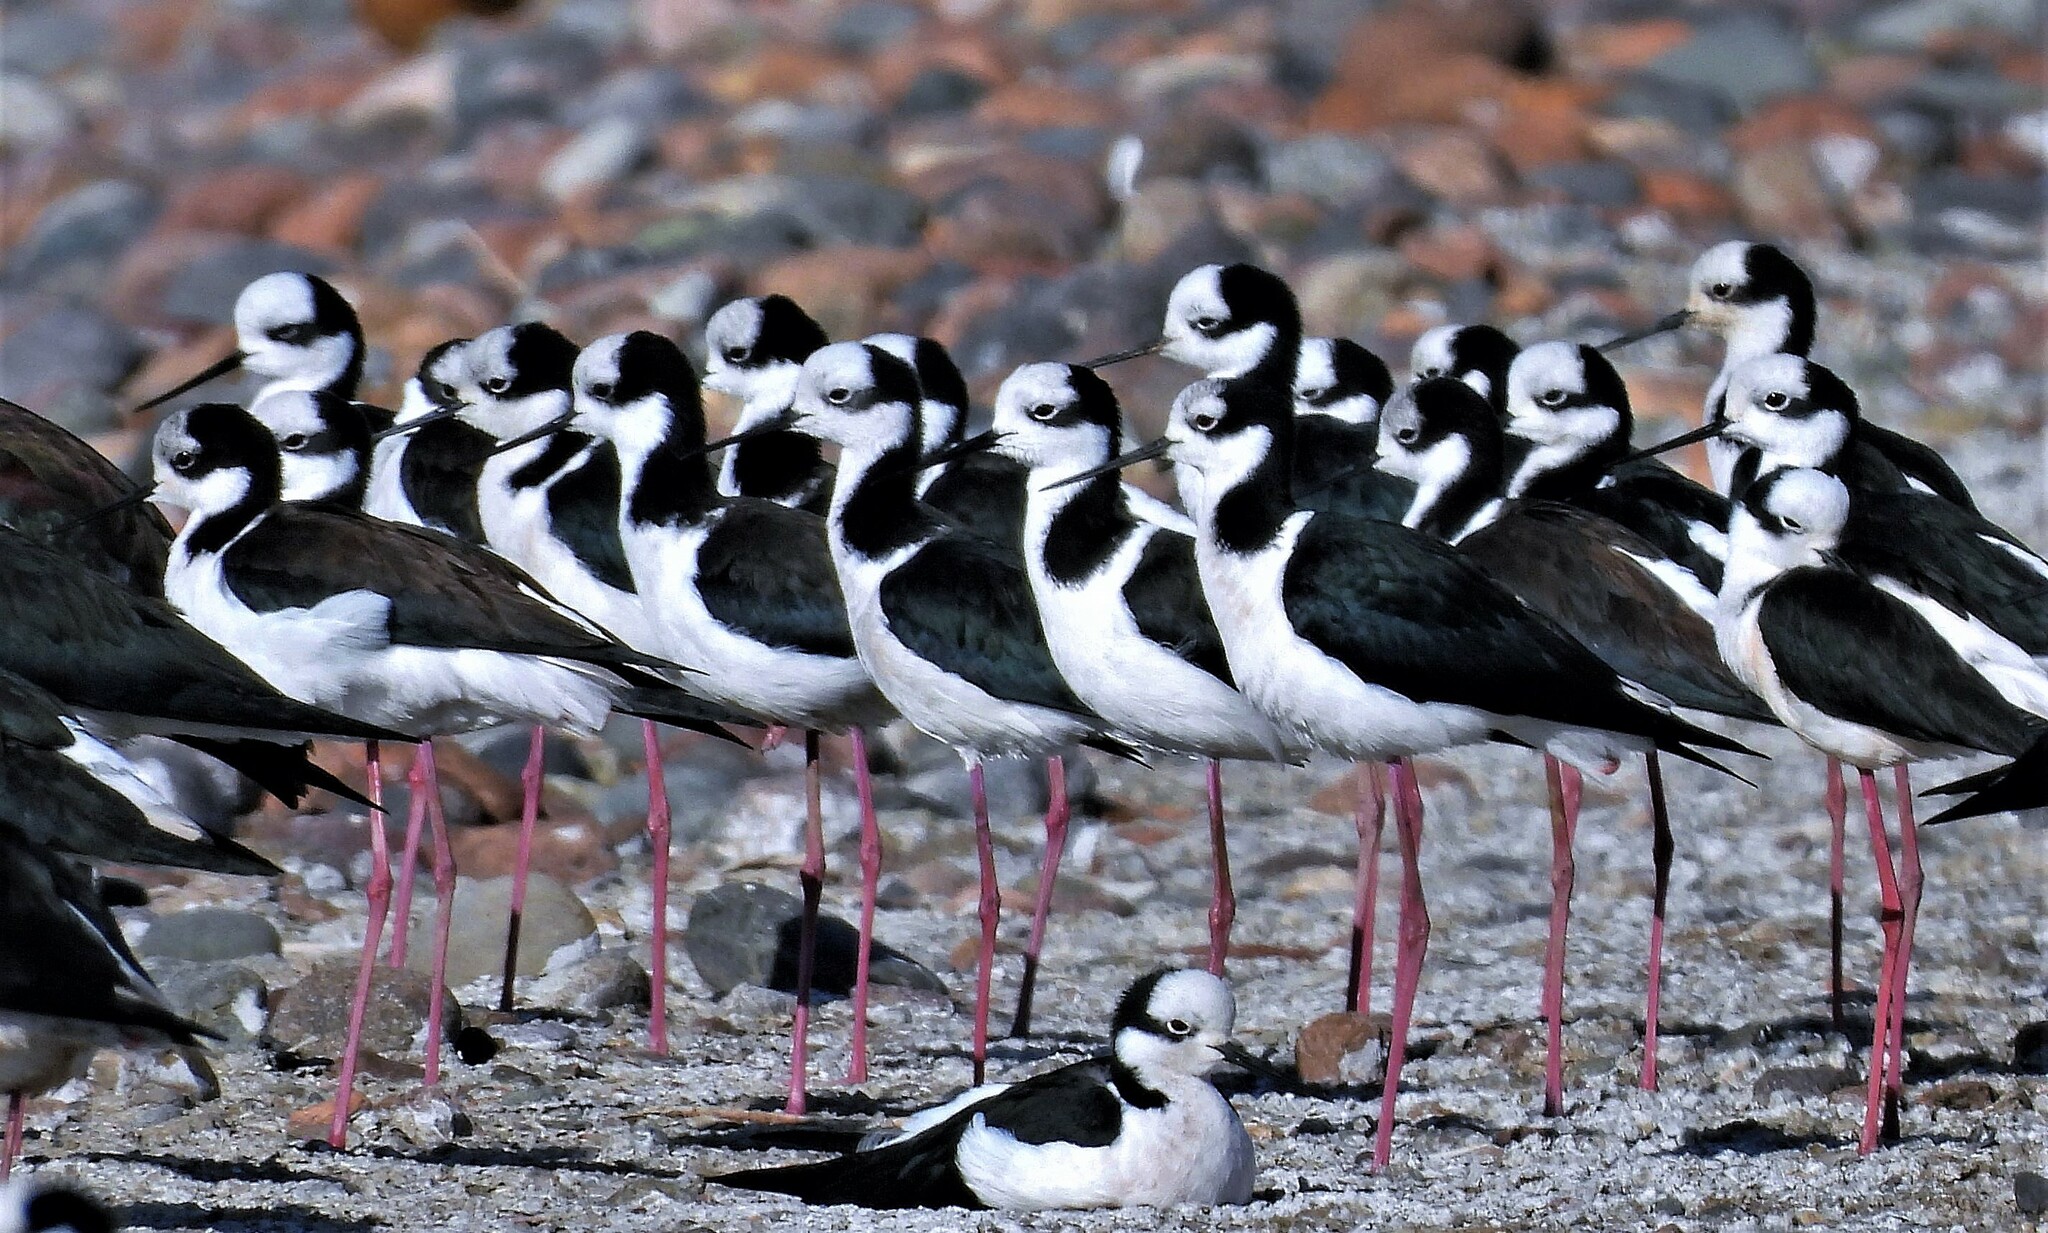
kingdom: Animalia
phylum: Chordata
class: Aves
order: Charadriiformes
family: Recurvirostridae
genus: Himantopus
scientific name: Himantopus mexicanus
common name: Black-necked stilt
